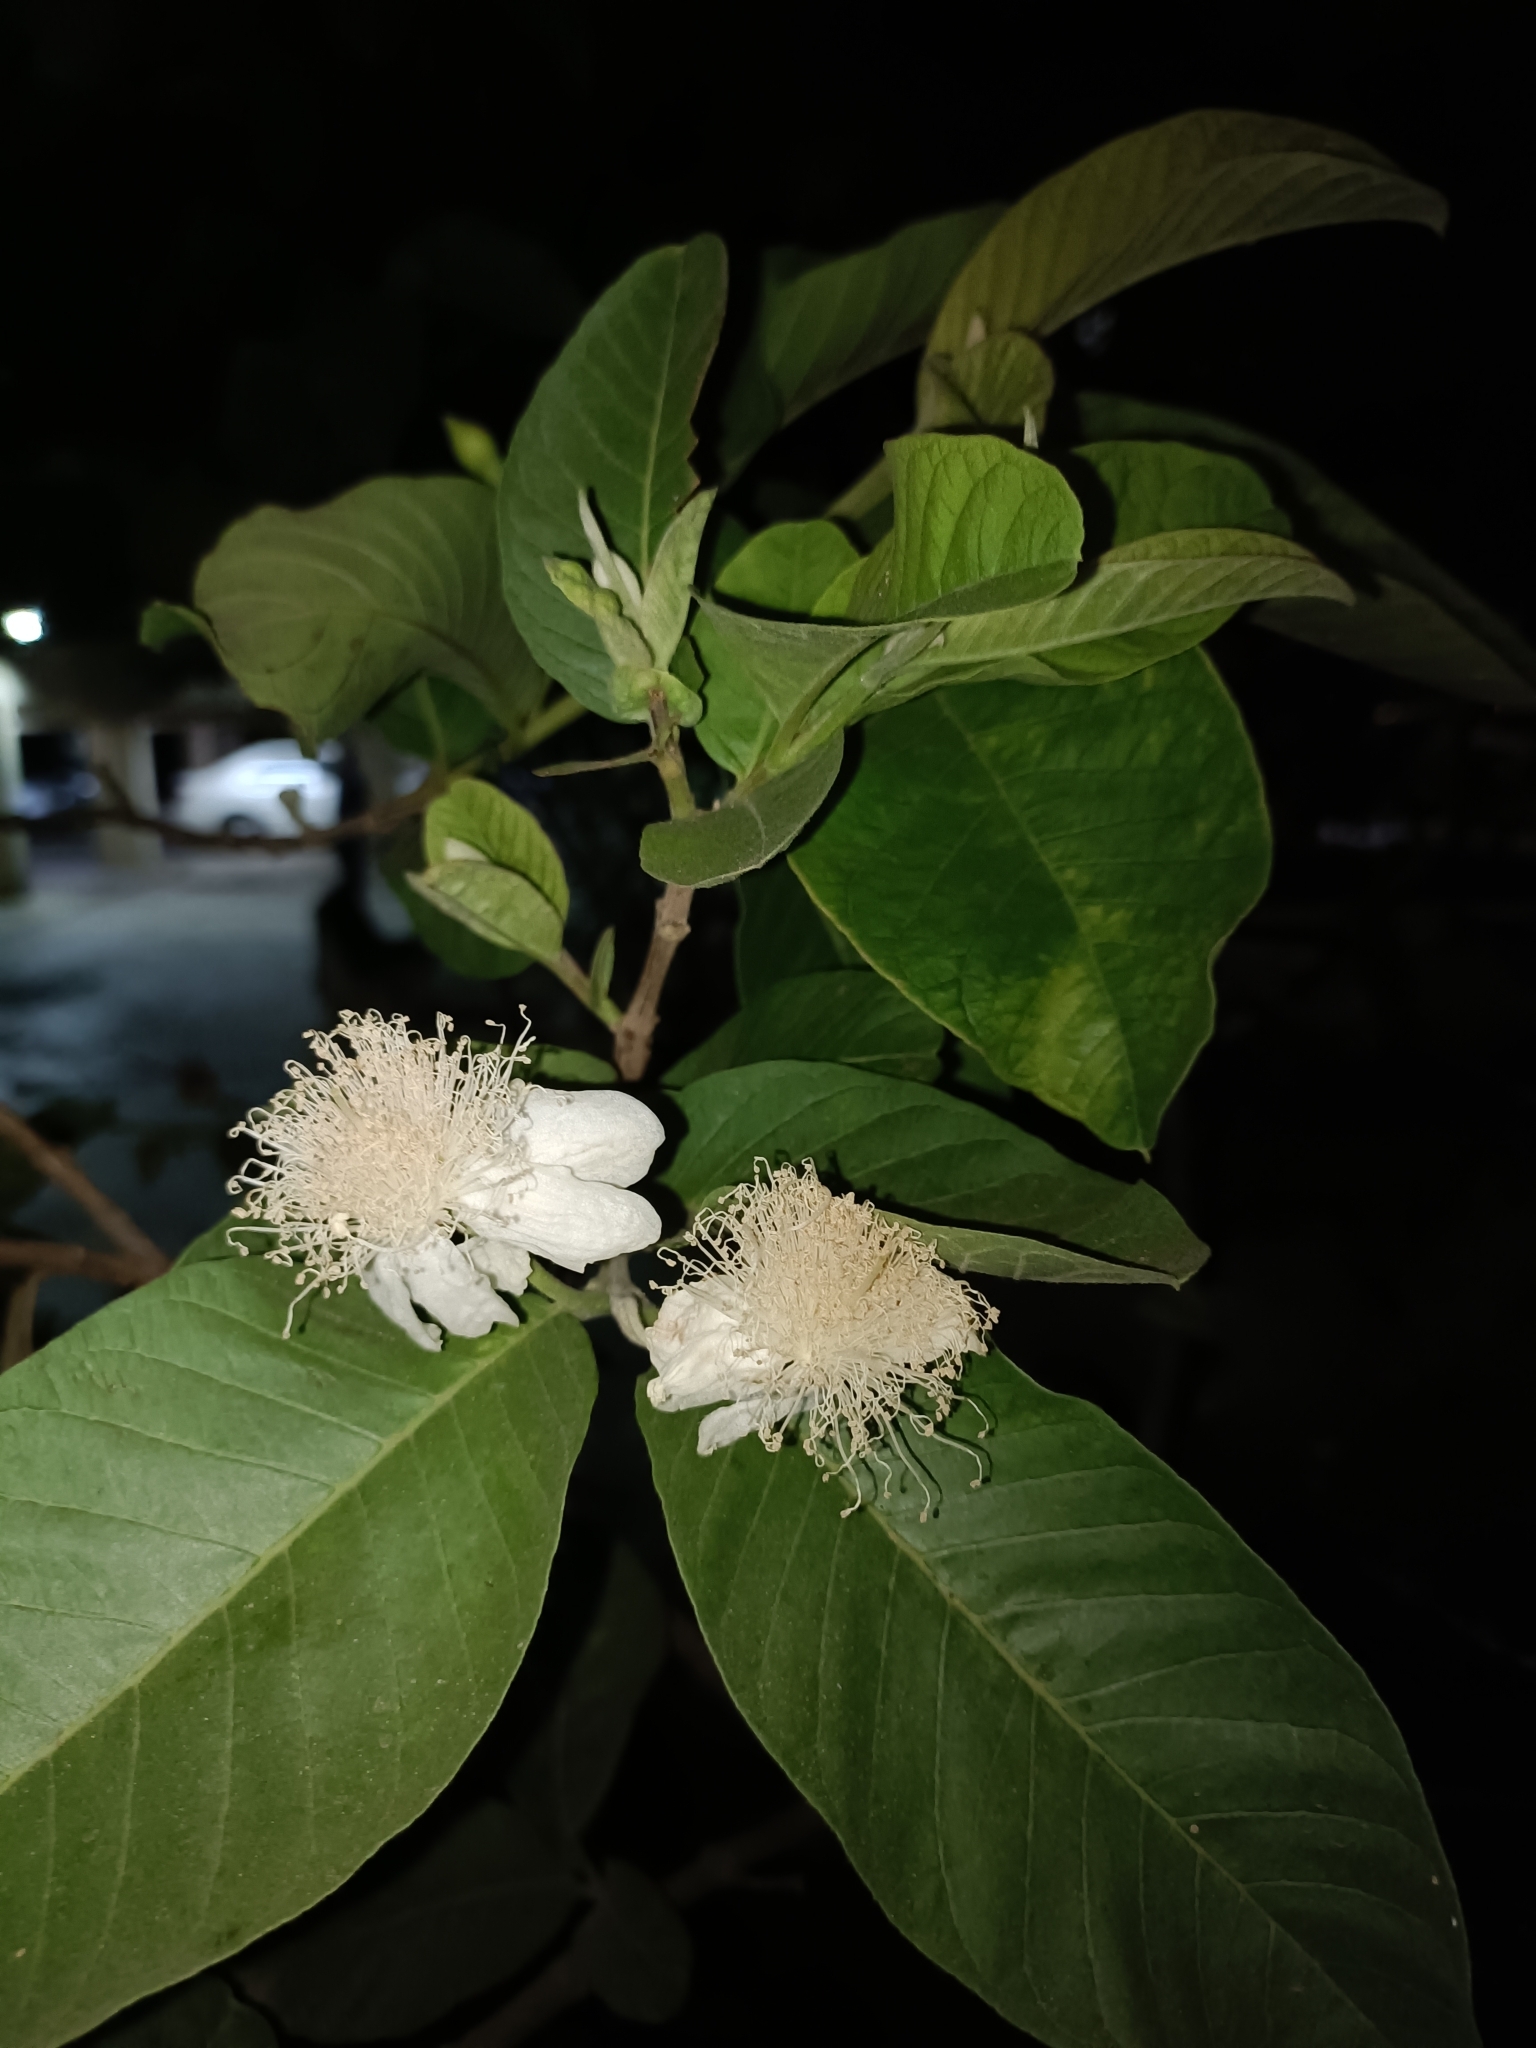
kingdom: Plantae
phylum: Tracheophyta
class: Magnoliopsida
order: Myrtales
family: Myrtaceae
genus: Psidium
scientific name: Psidium guajava
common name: Guava
